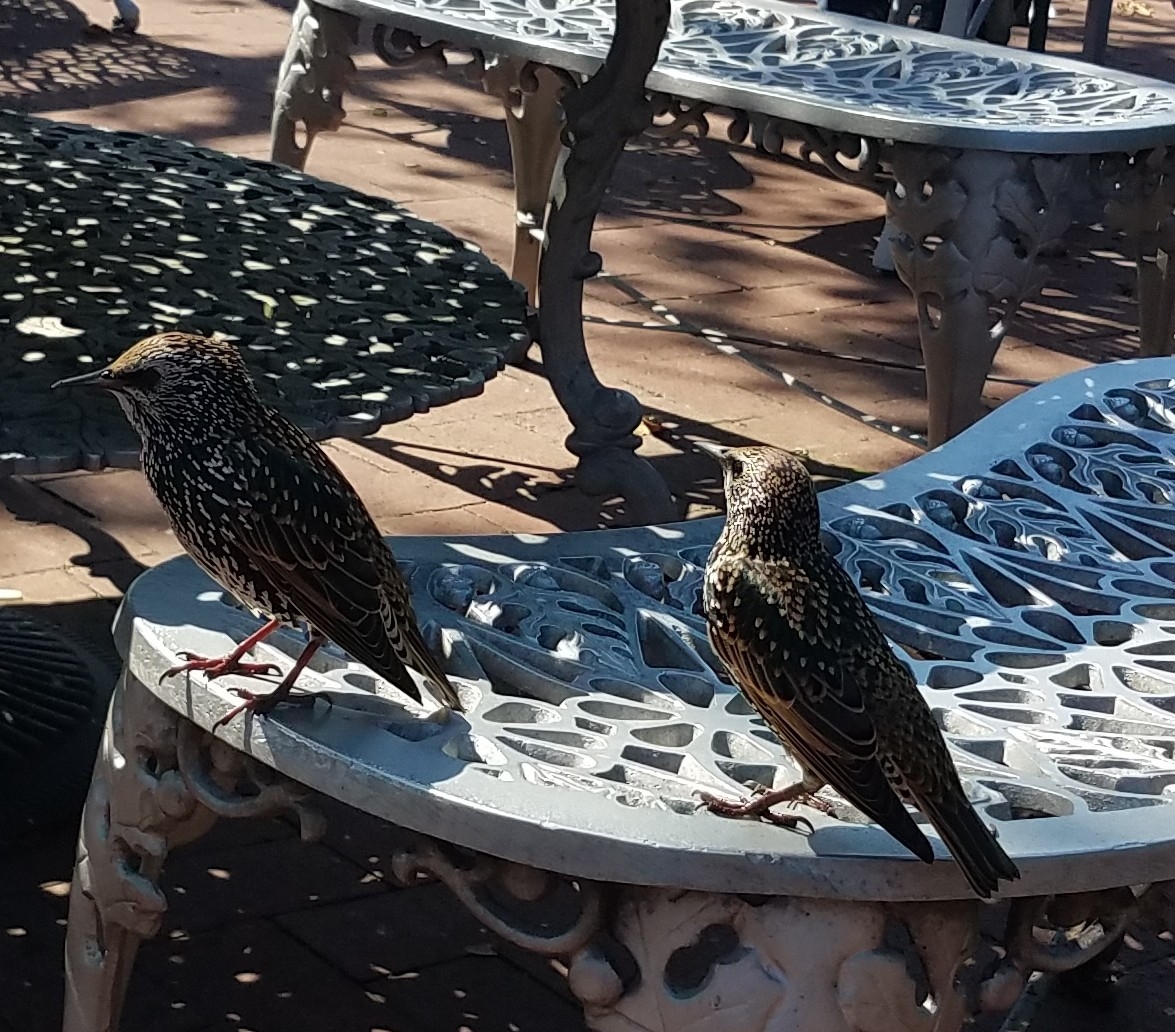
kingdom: Animalia
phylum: Chordata
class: Aves
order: Passeriformes
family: Sturnidae
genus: Sturnus
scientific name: Sturnus vulgaris
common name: Common starling
